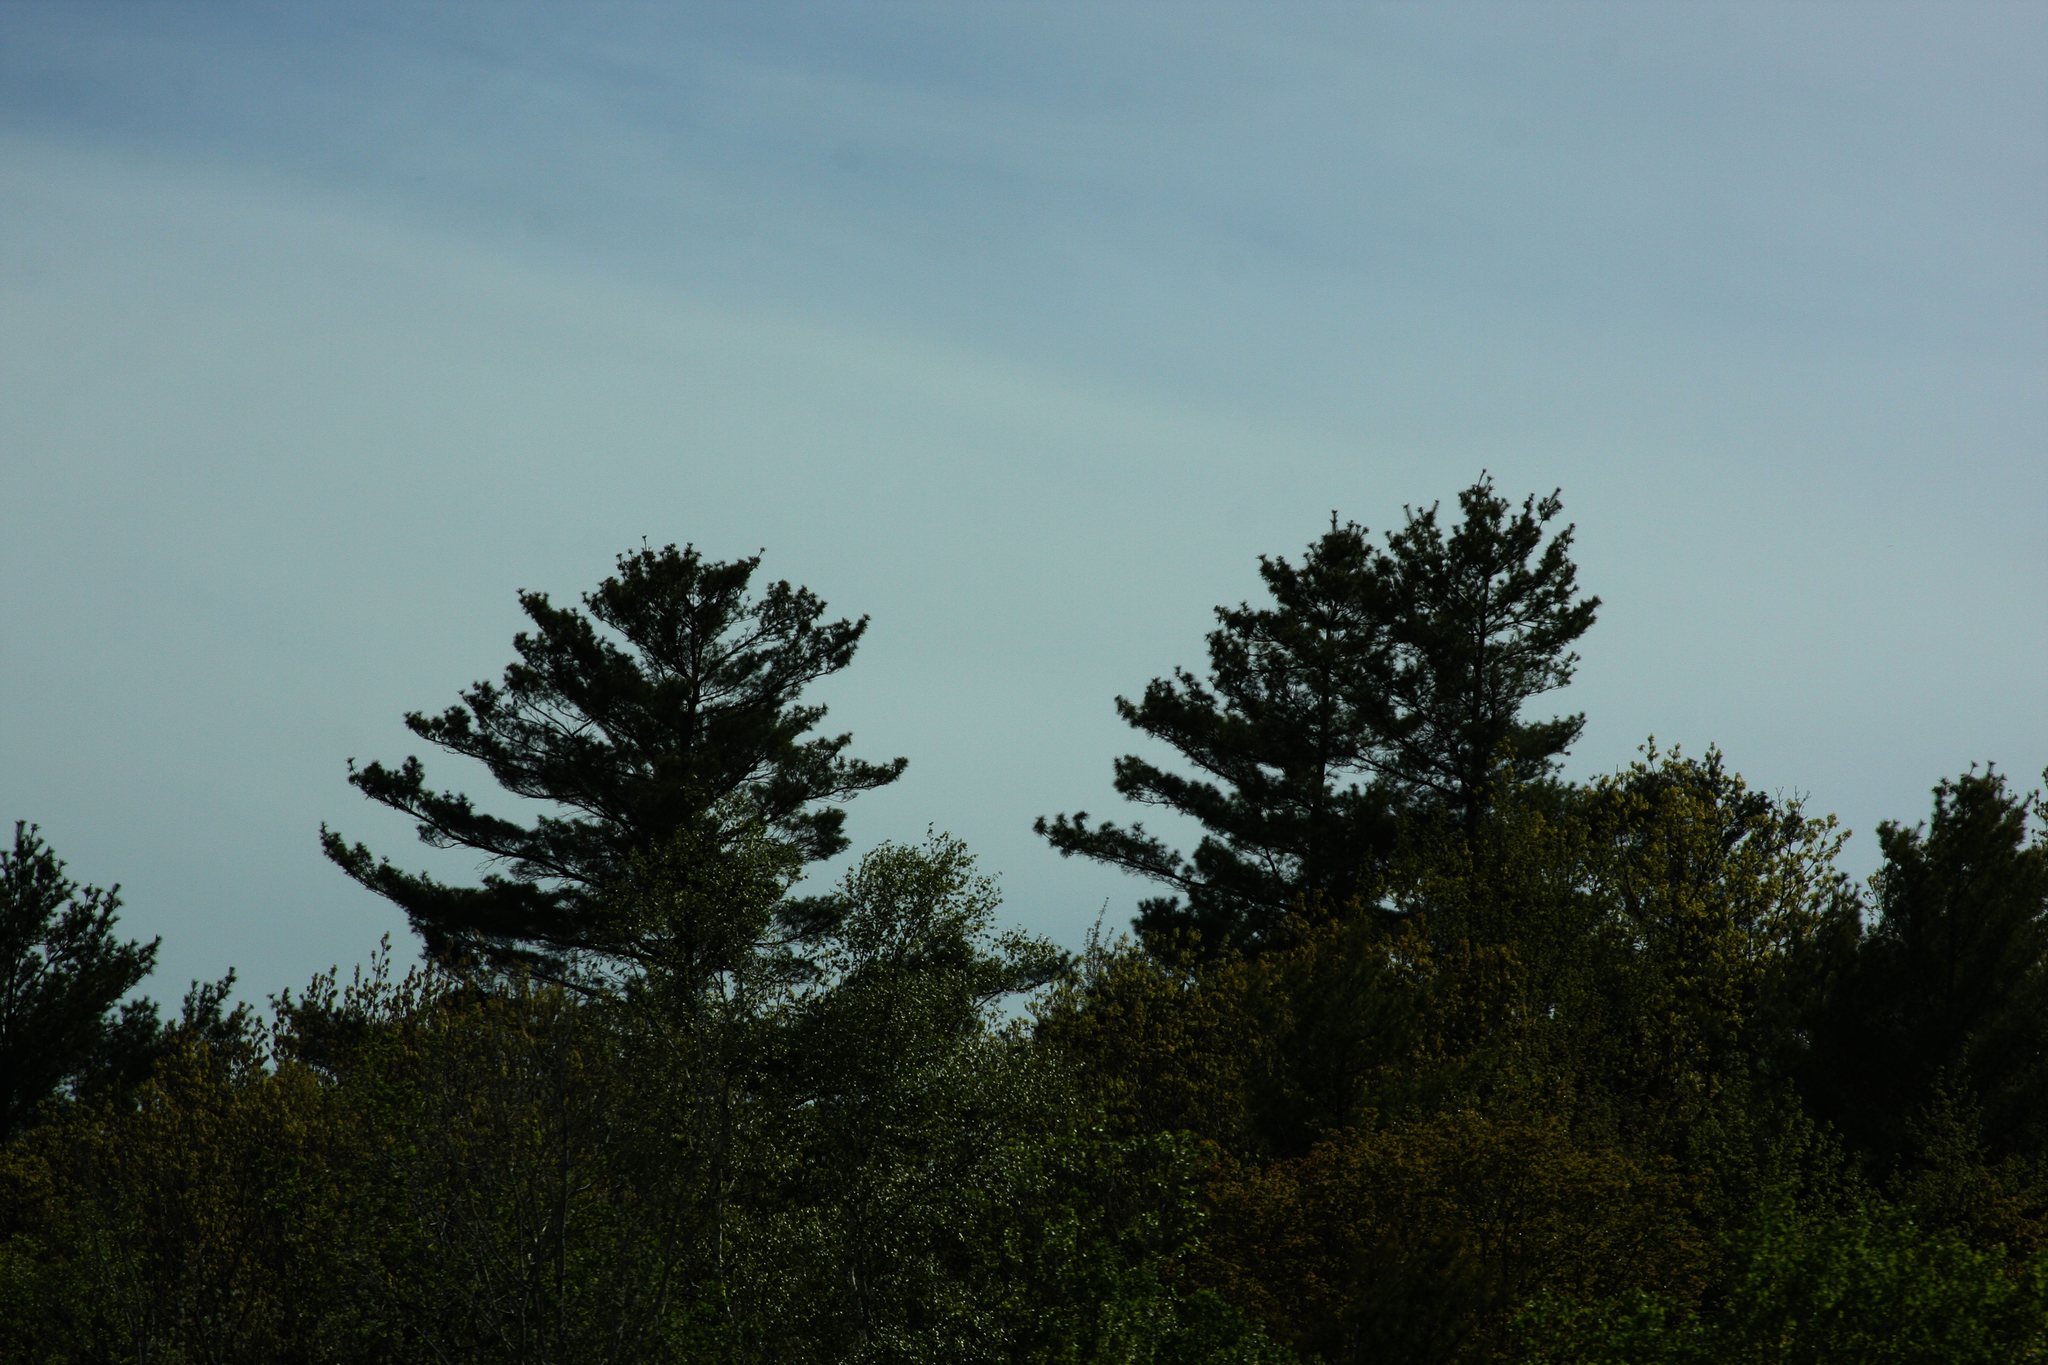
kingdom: Plantae
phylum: Tracheophyta
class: Pinopsida
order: Pinales
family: Pinaceae
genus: Pinus
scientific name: Pinus strobus
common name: Weymouth pine
